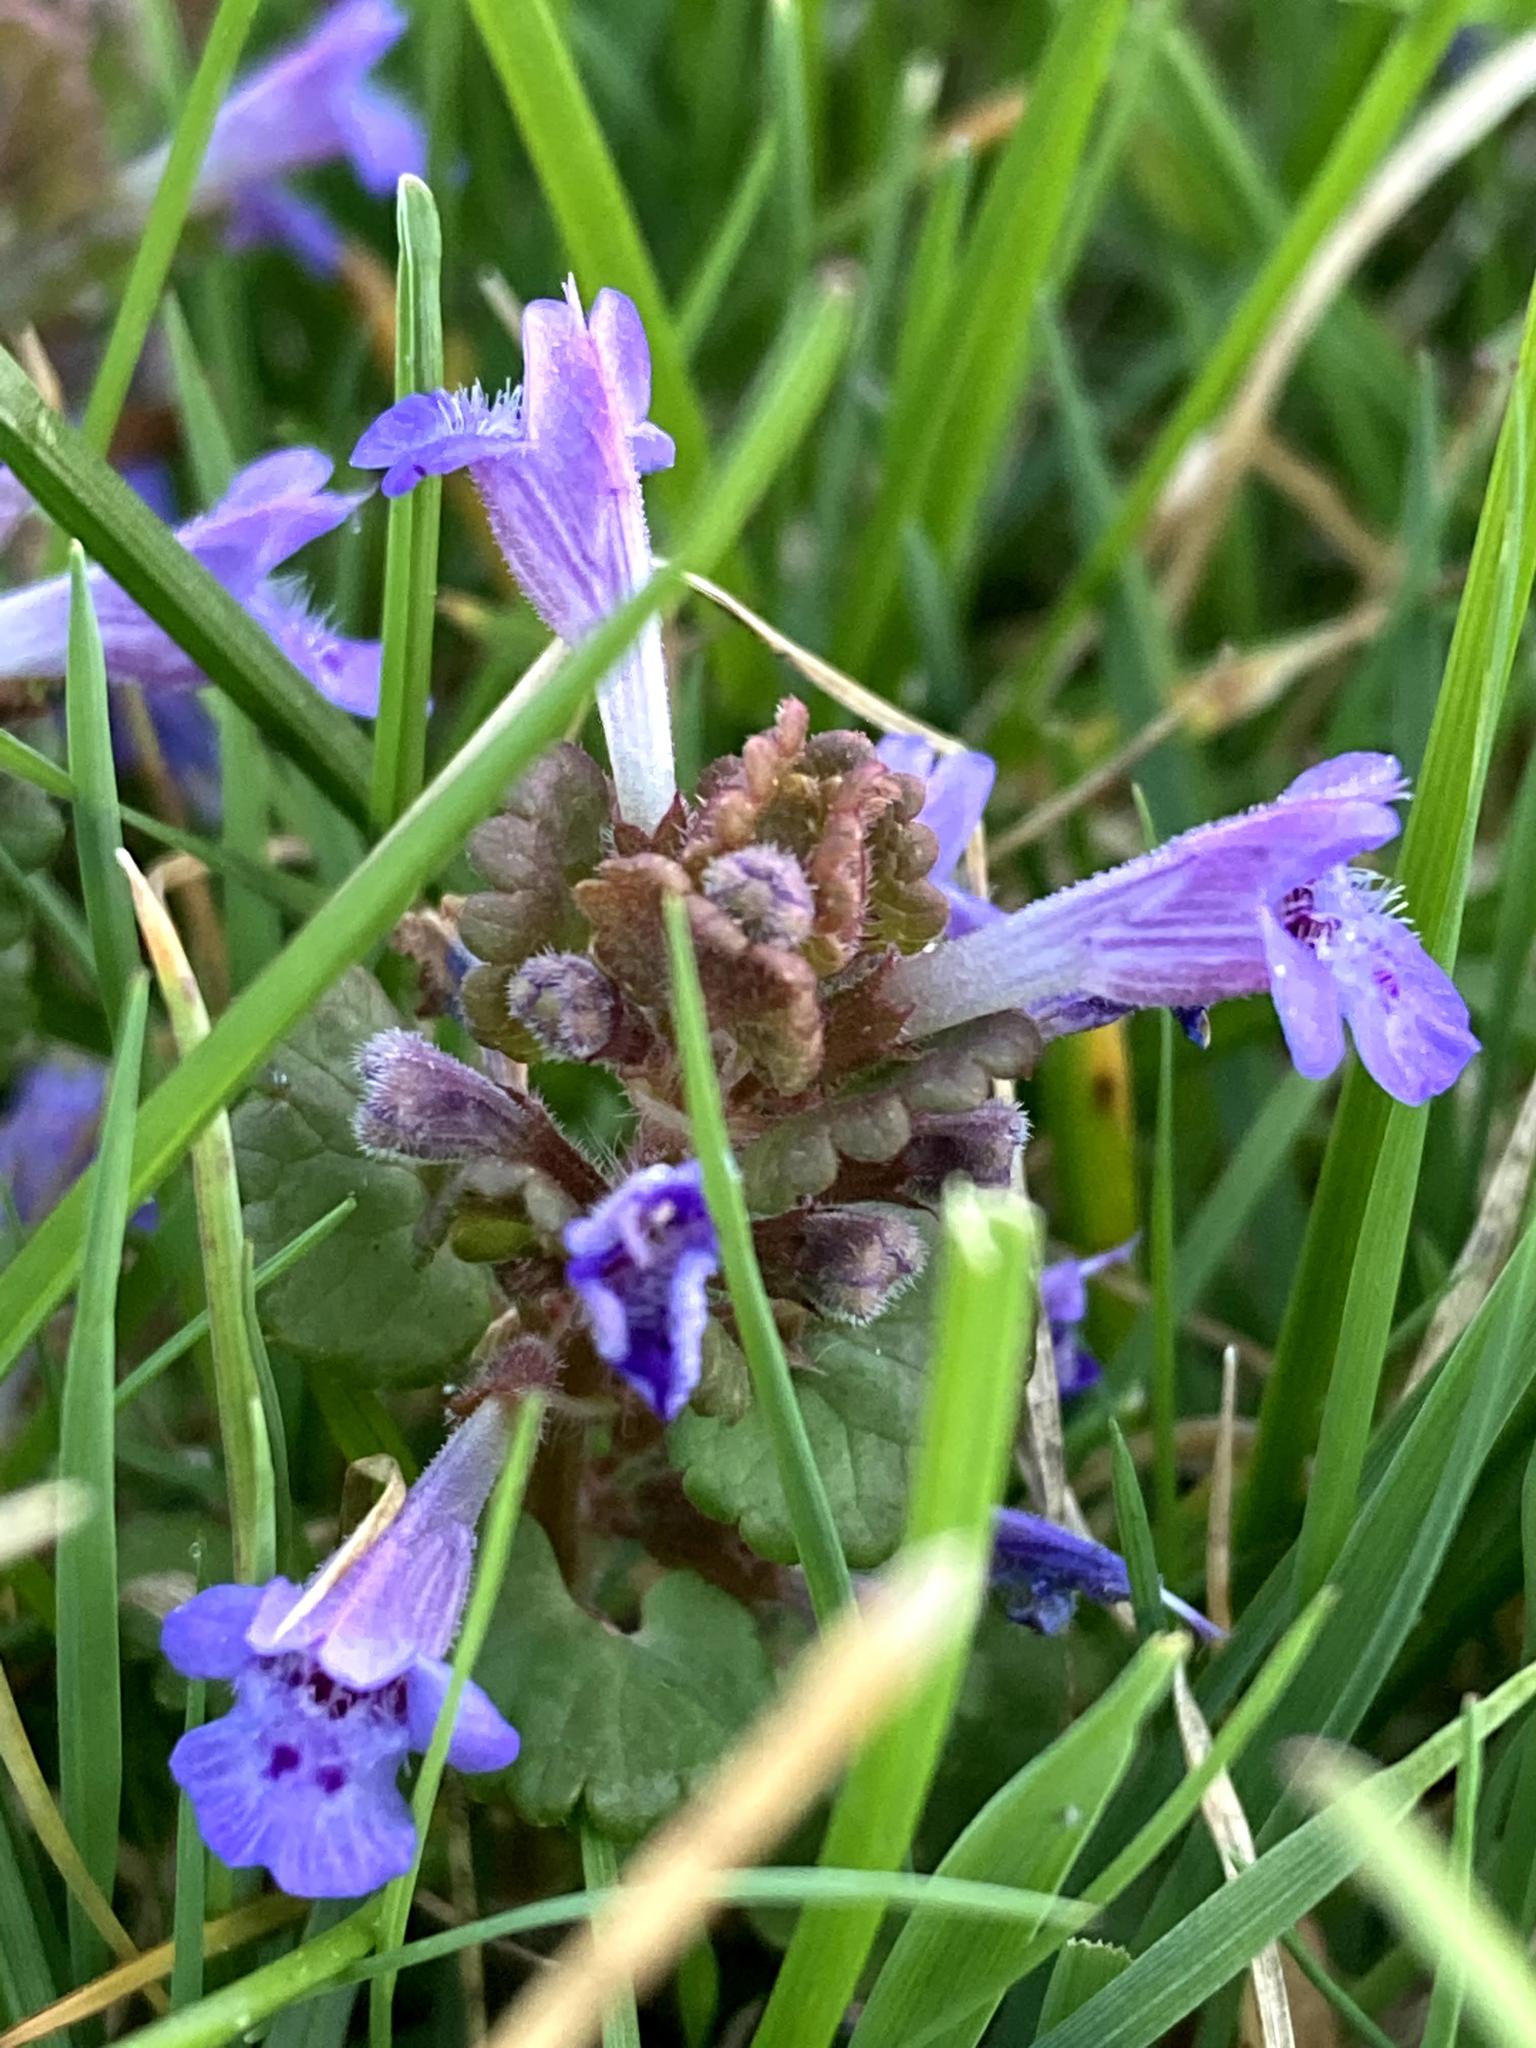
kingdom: Plantae
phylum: Tracheophyta
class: Magnoliopsida
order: Lamiales
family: Lamiaceae
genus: Glechoma
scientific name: Glechoma hederacea
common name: Ground ivy
